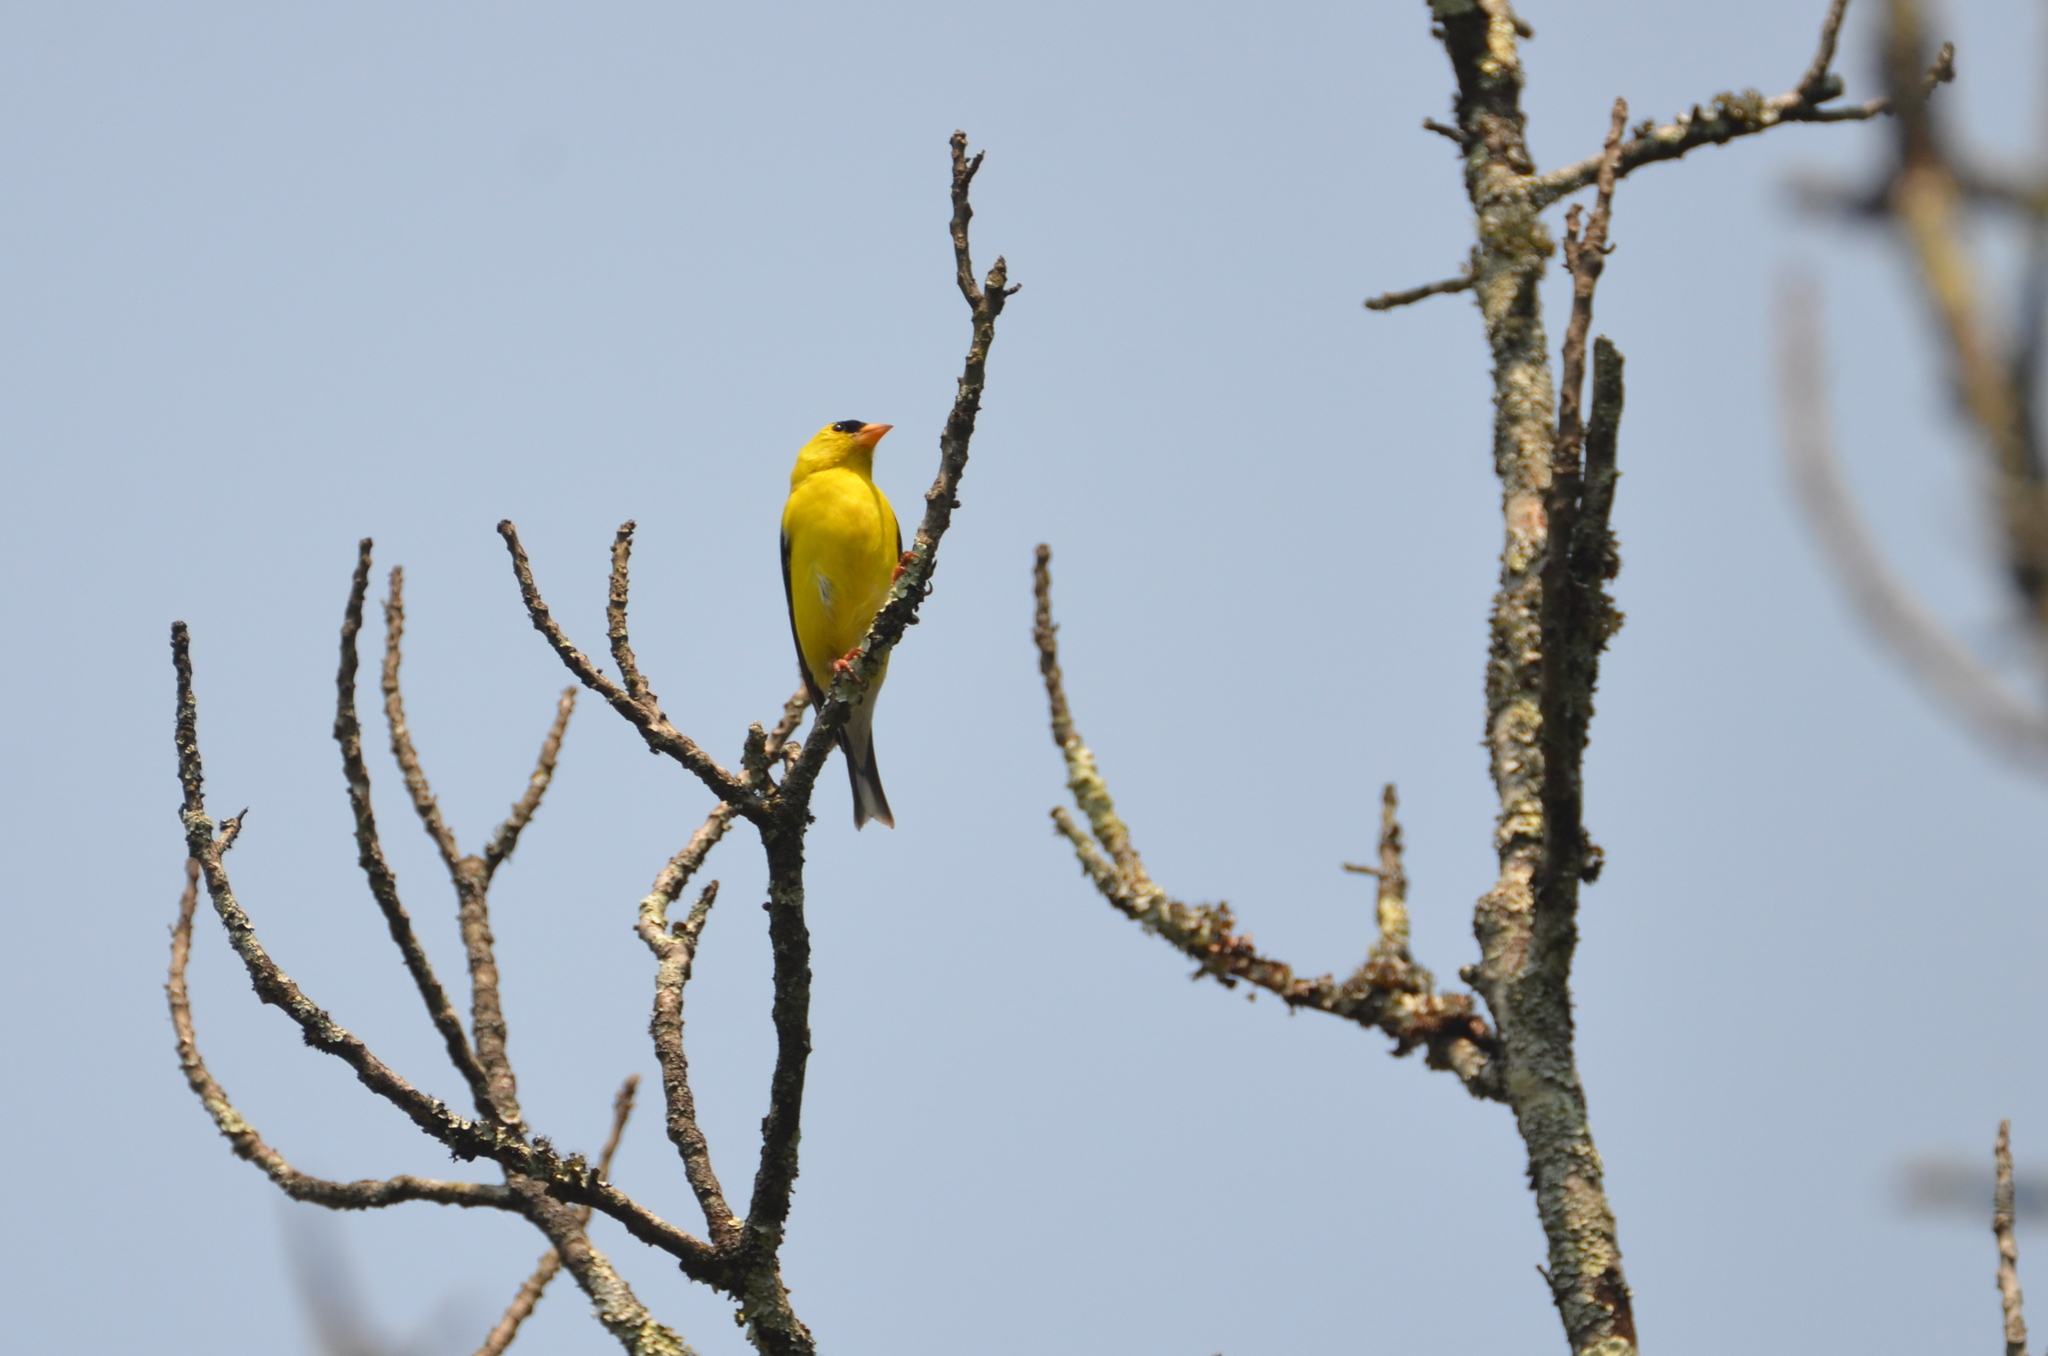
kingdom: Animalia
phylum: Chordata
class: Aves
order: Passeriformes
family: Fringillidae
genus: Spinus
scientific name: Spinus tristis
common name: American goldfinch
